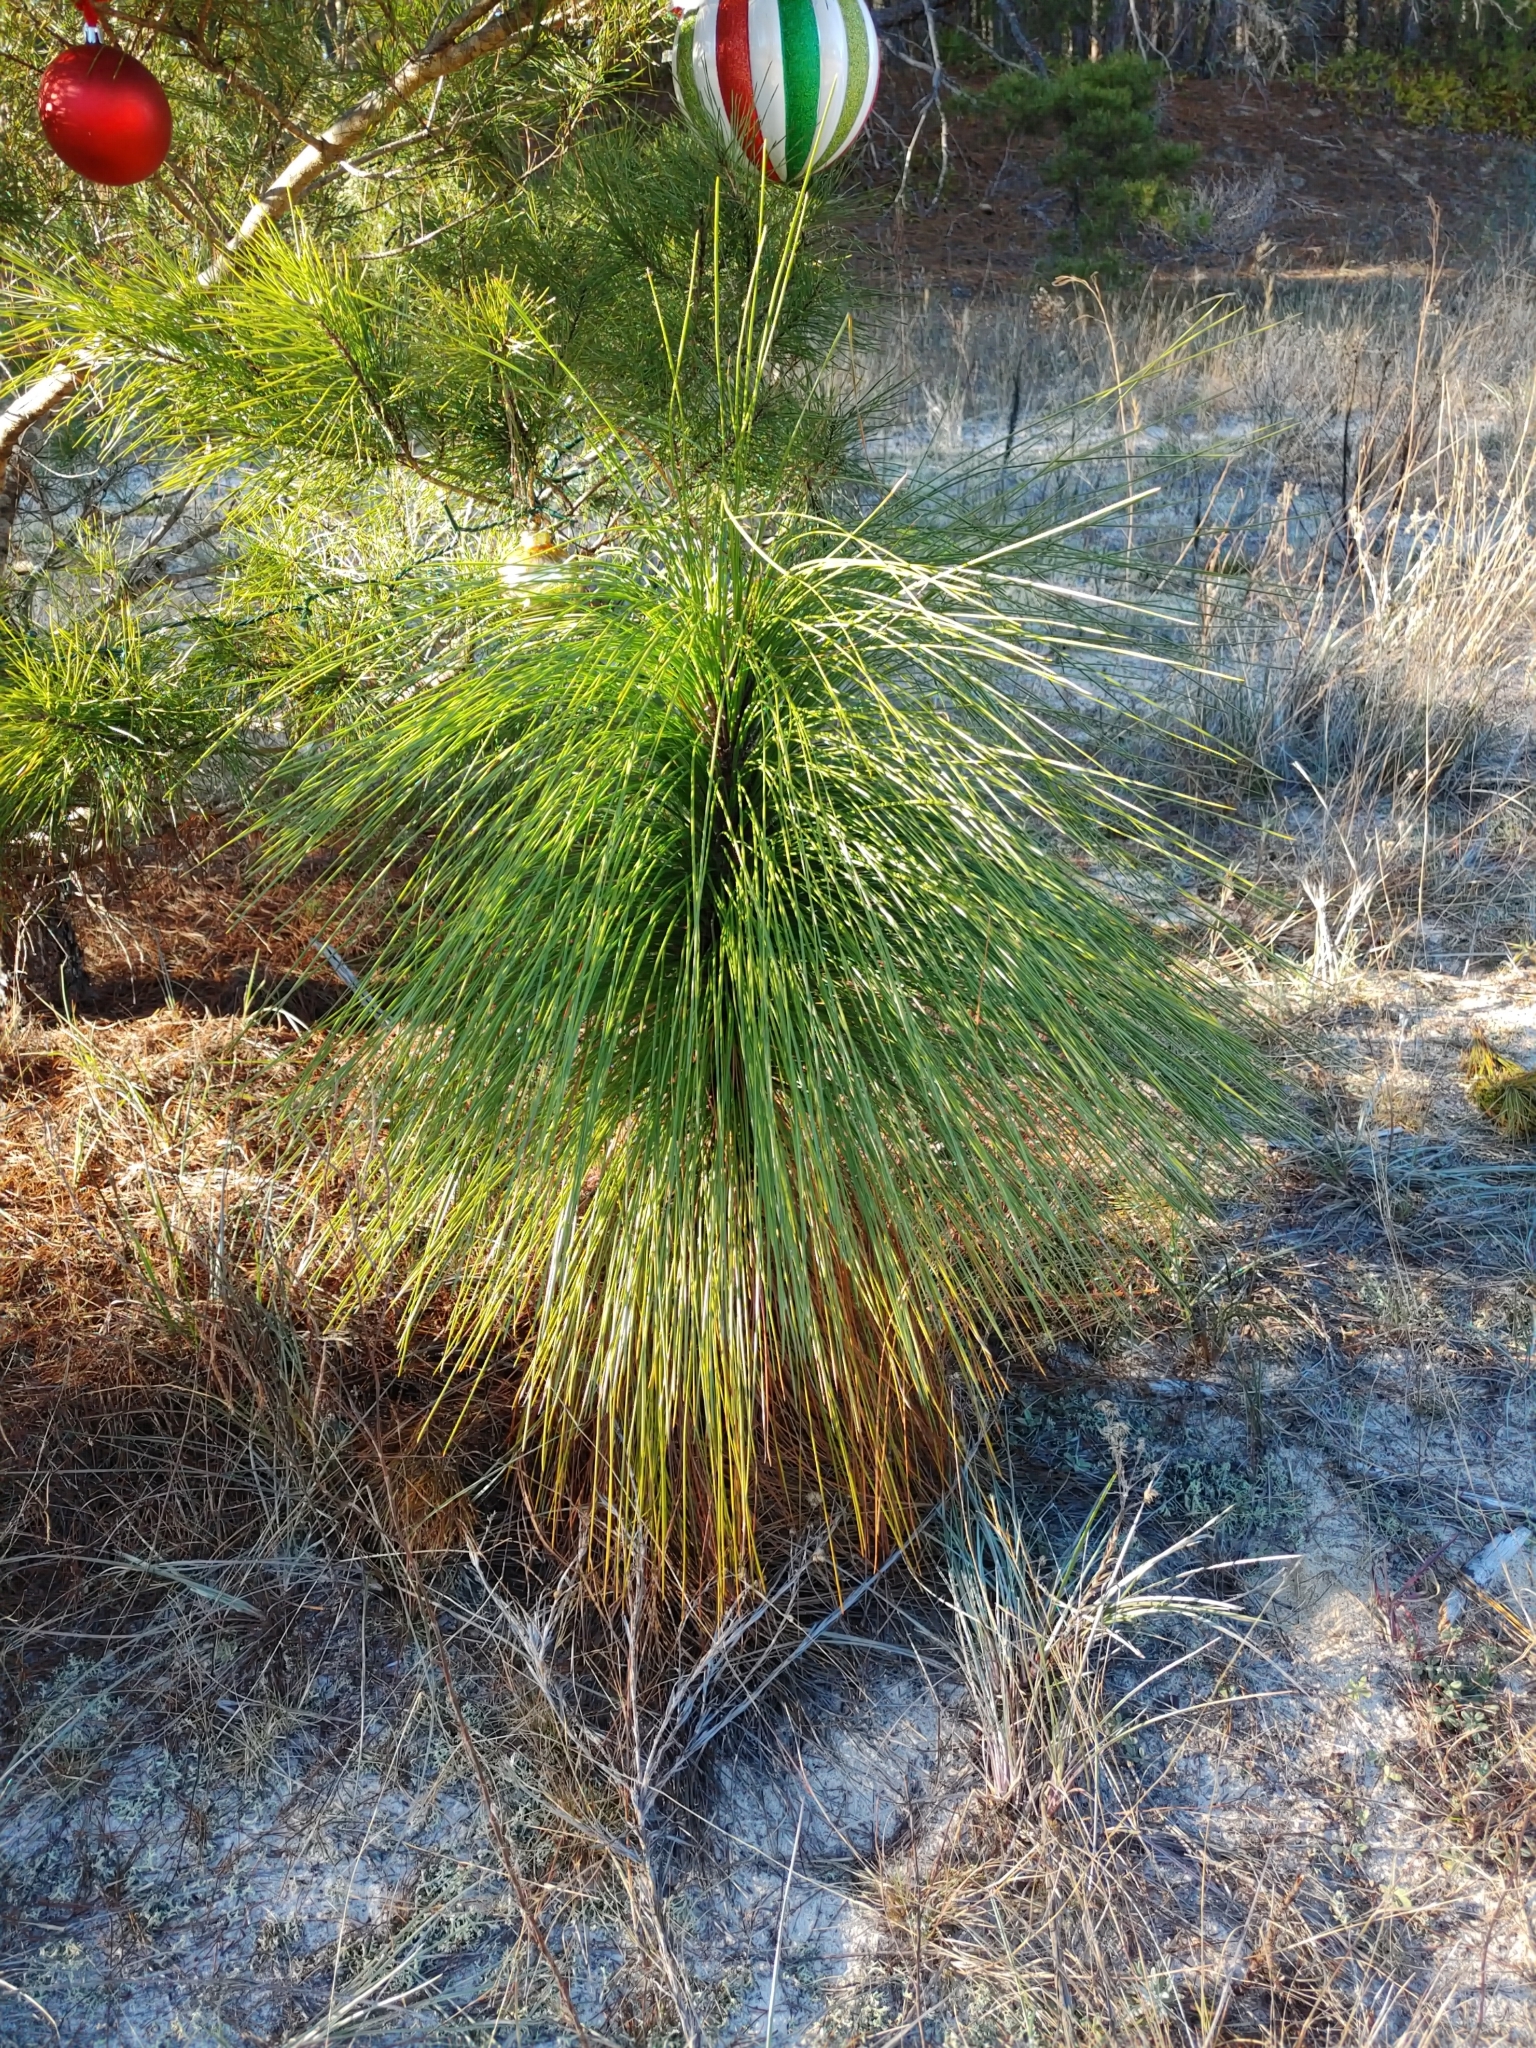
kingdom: Plantae
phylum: Tracheophyta
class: Pinopsida
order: Pinales
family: Pinaceae
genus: Pinus
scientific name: Pinus palustris
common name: Longleaf pine
